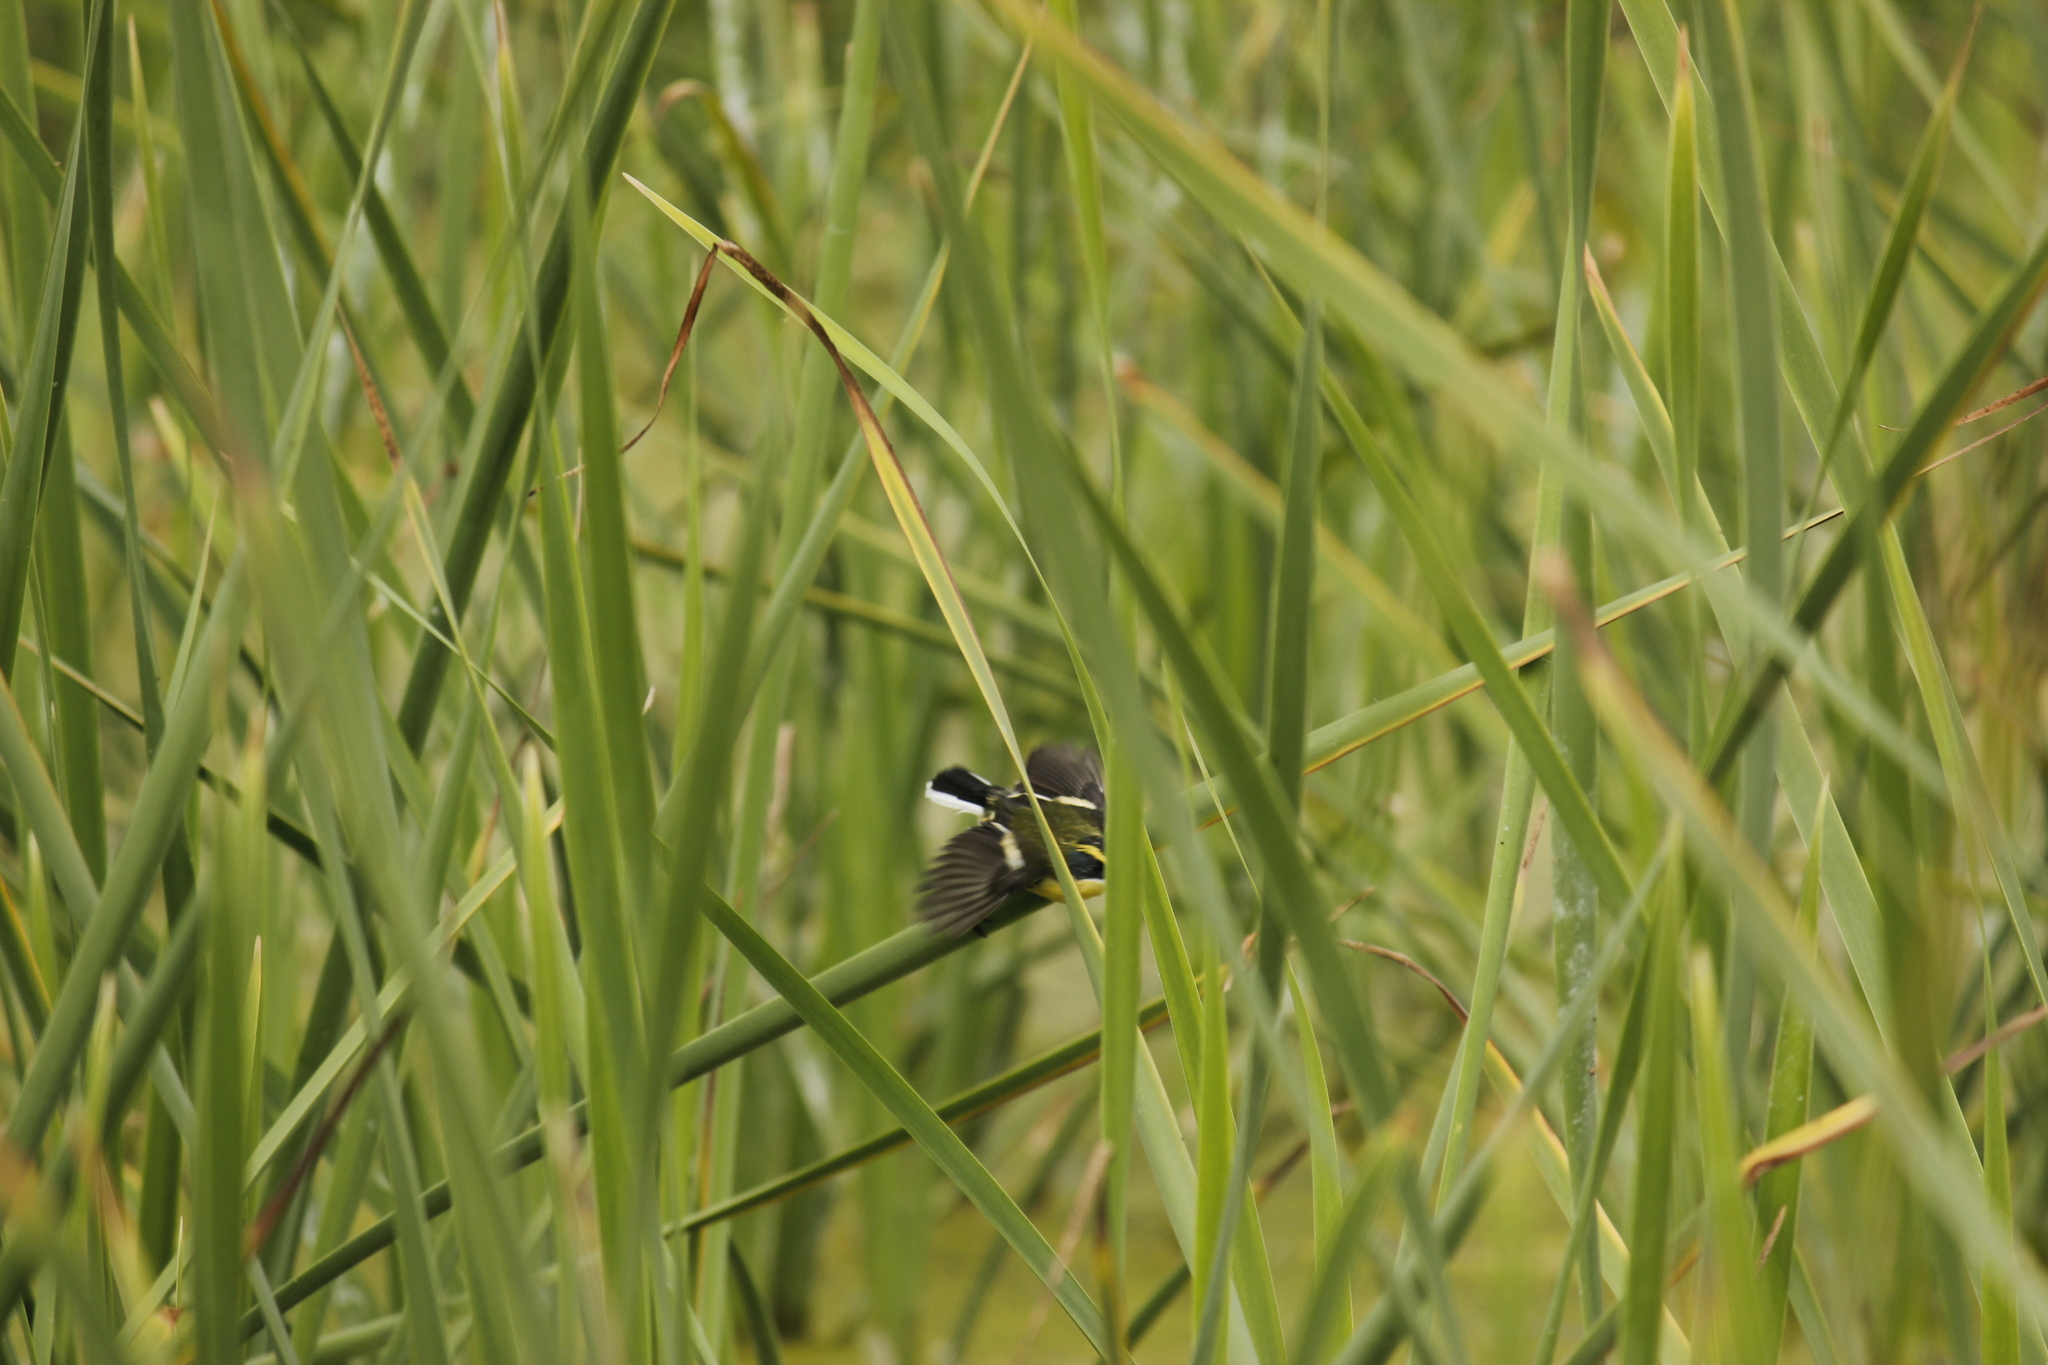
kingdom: Animalia
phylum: Chordata
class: Aves
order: Passeriformes
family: Tyrannidae
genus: Tachuris
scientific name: Tachuris rubrigastra
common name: Many-colored rush tyrant
